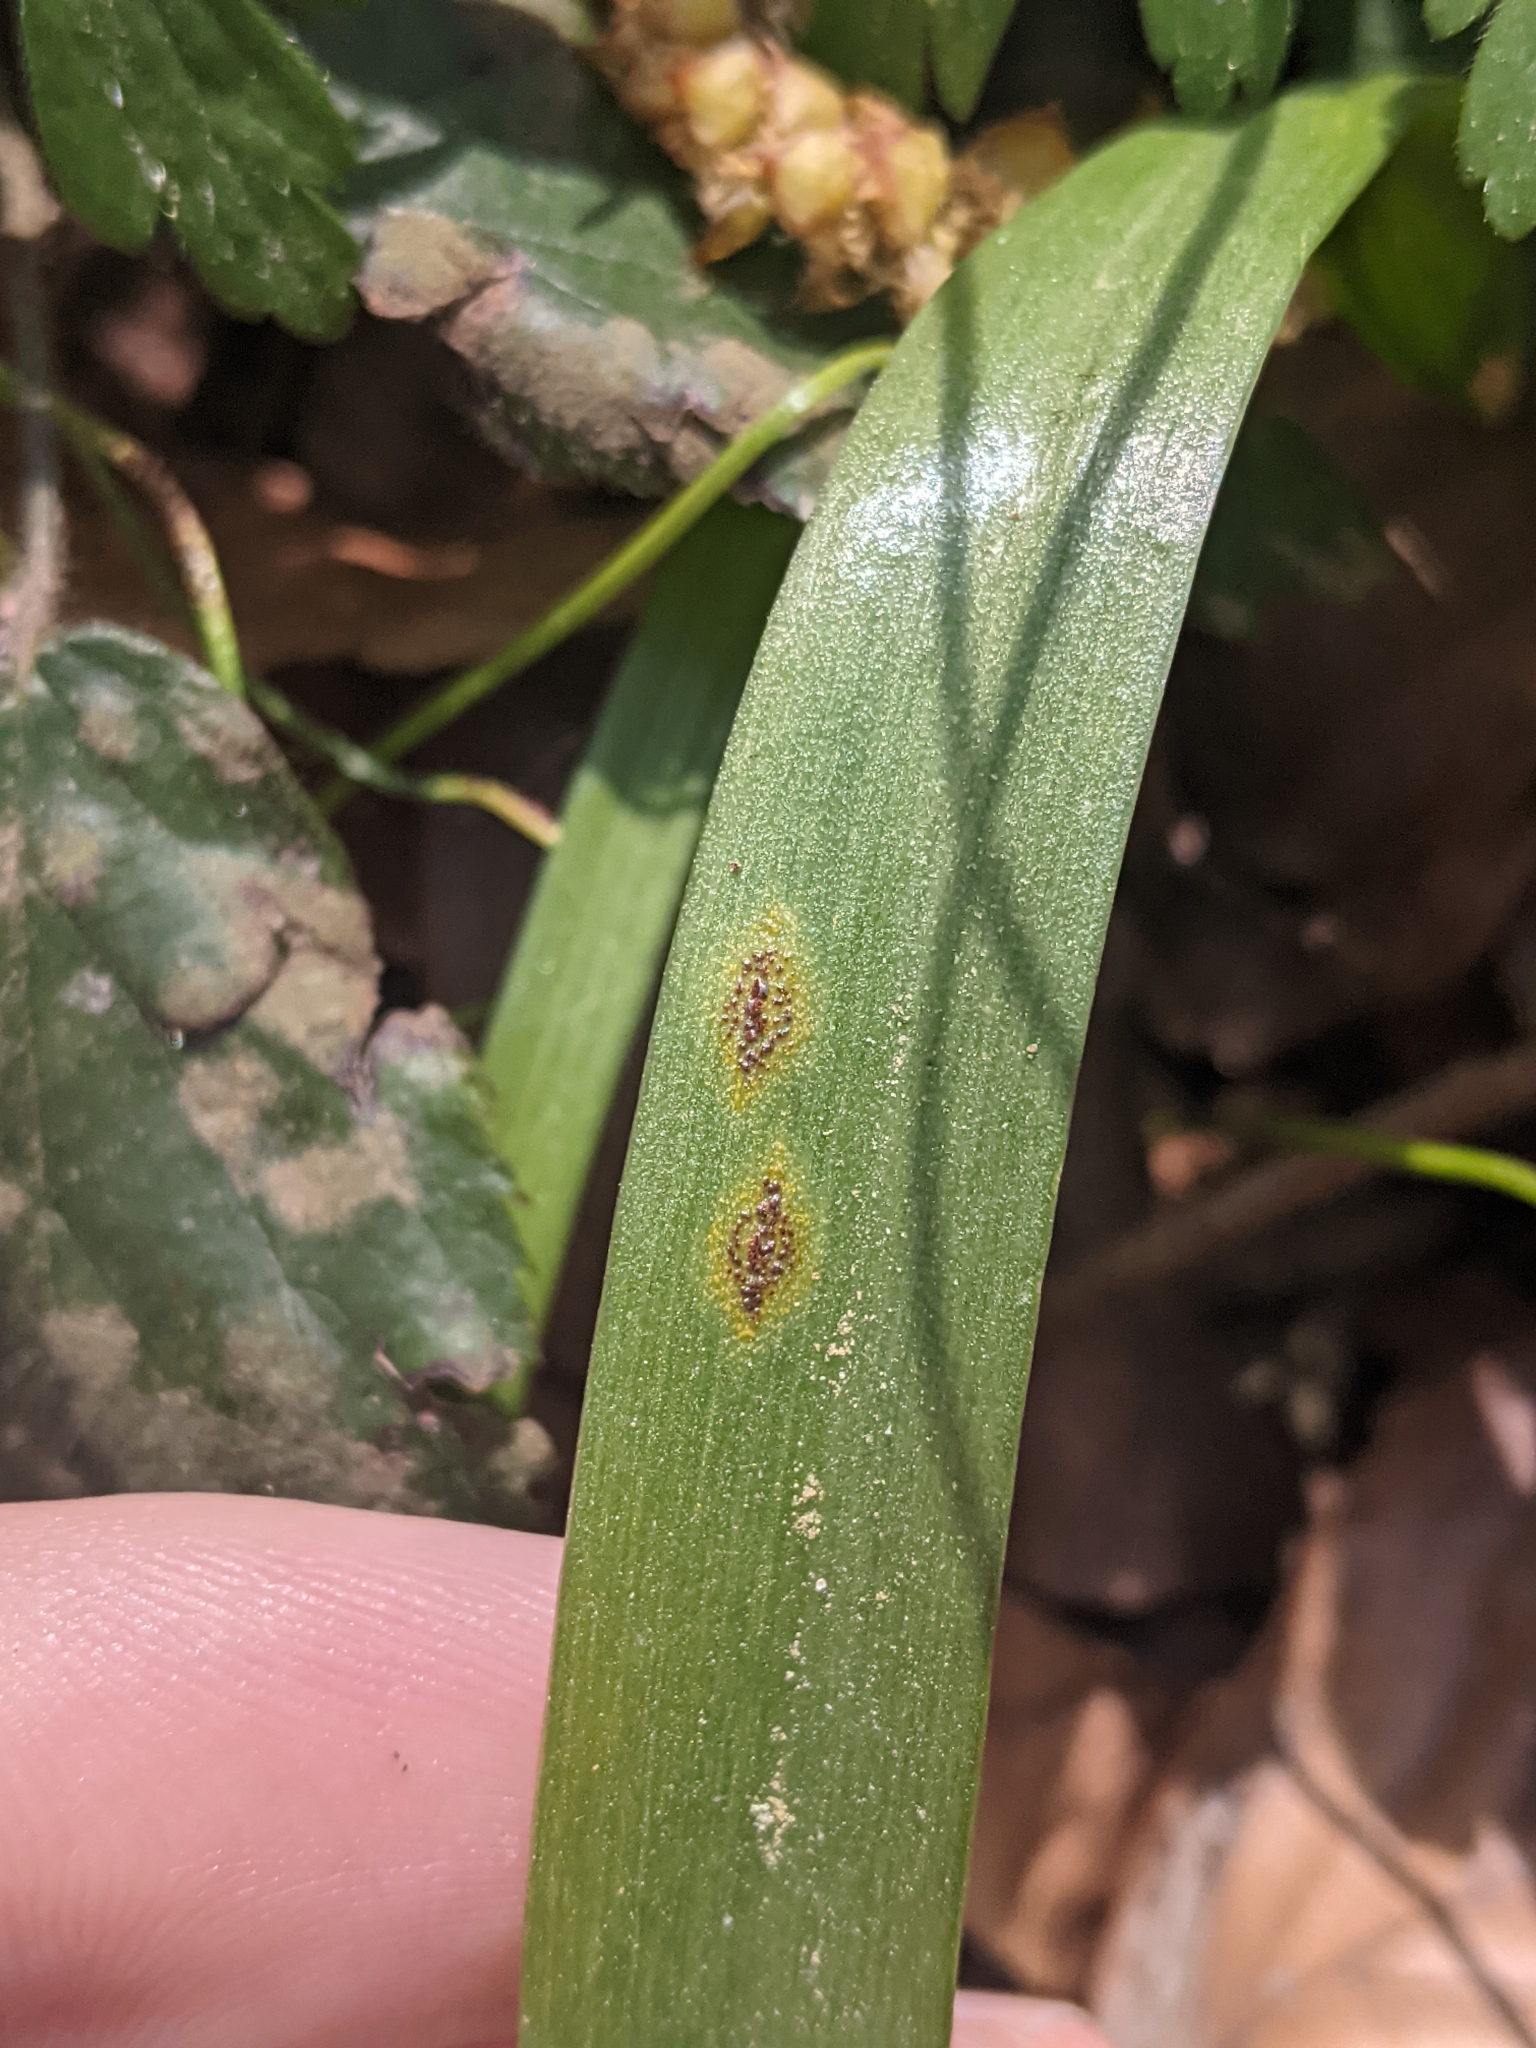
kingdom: Fungi
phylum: Basidiomycota
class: Pucciniomycetes
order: Pucciniales
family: Pucciniaceae
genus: Uromyces
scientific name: Uromyces hyacinthi
